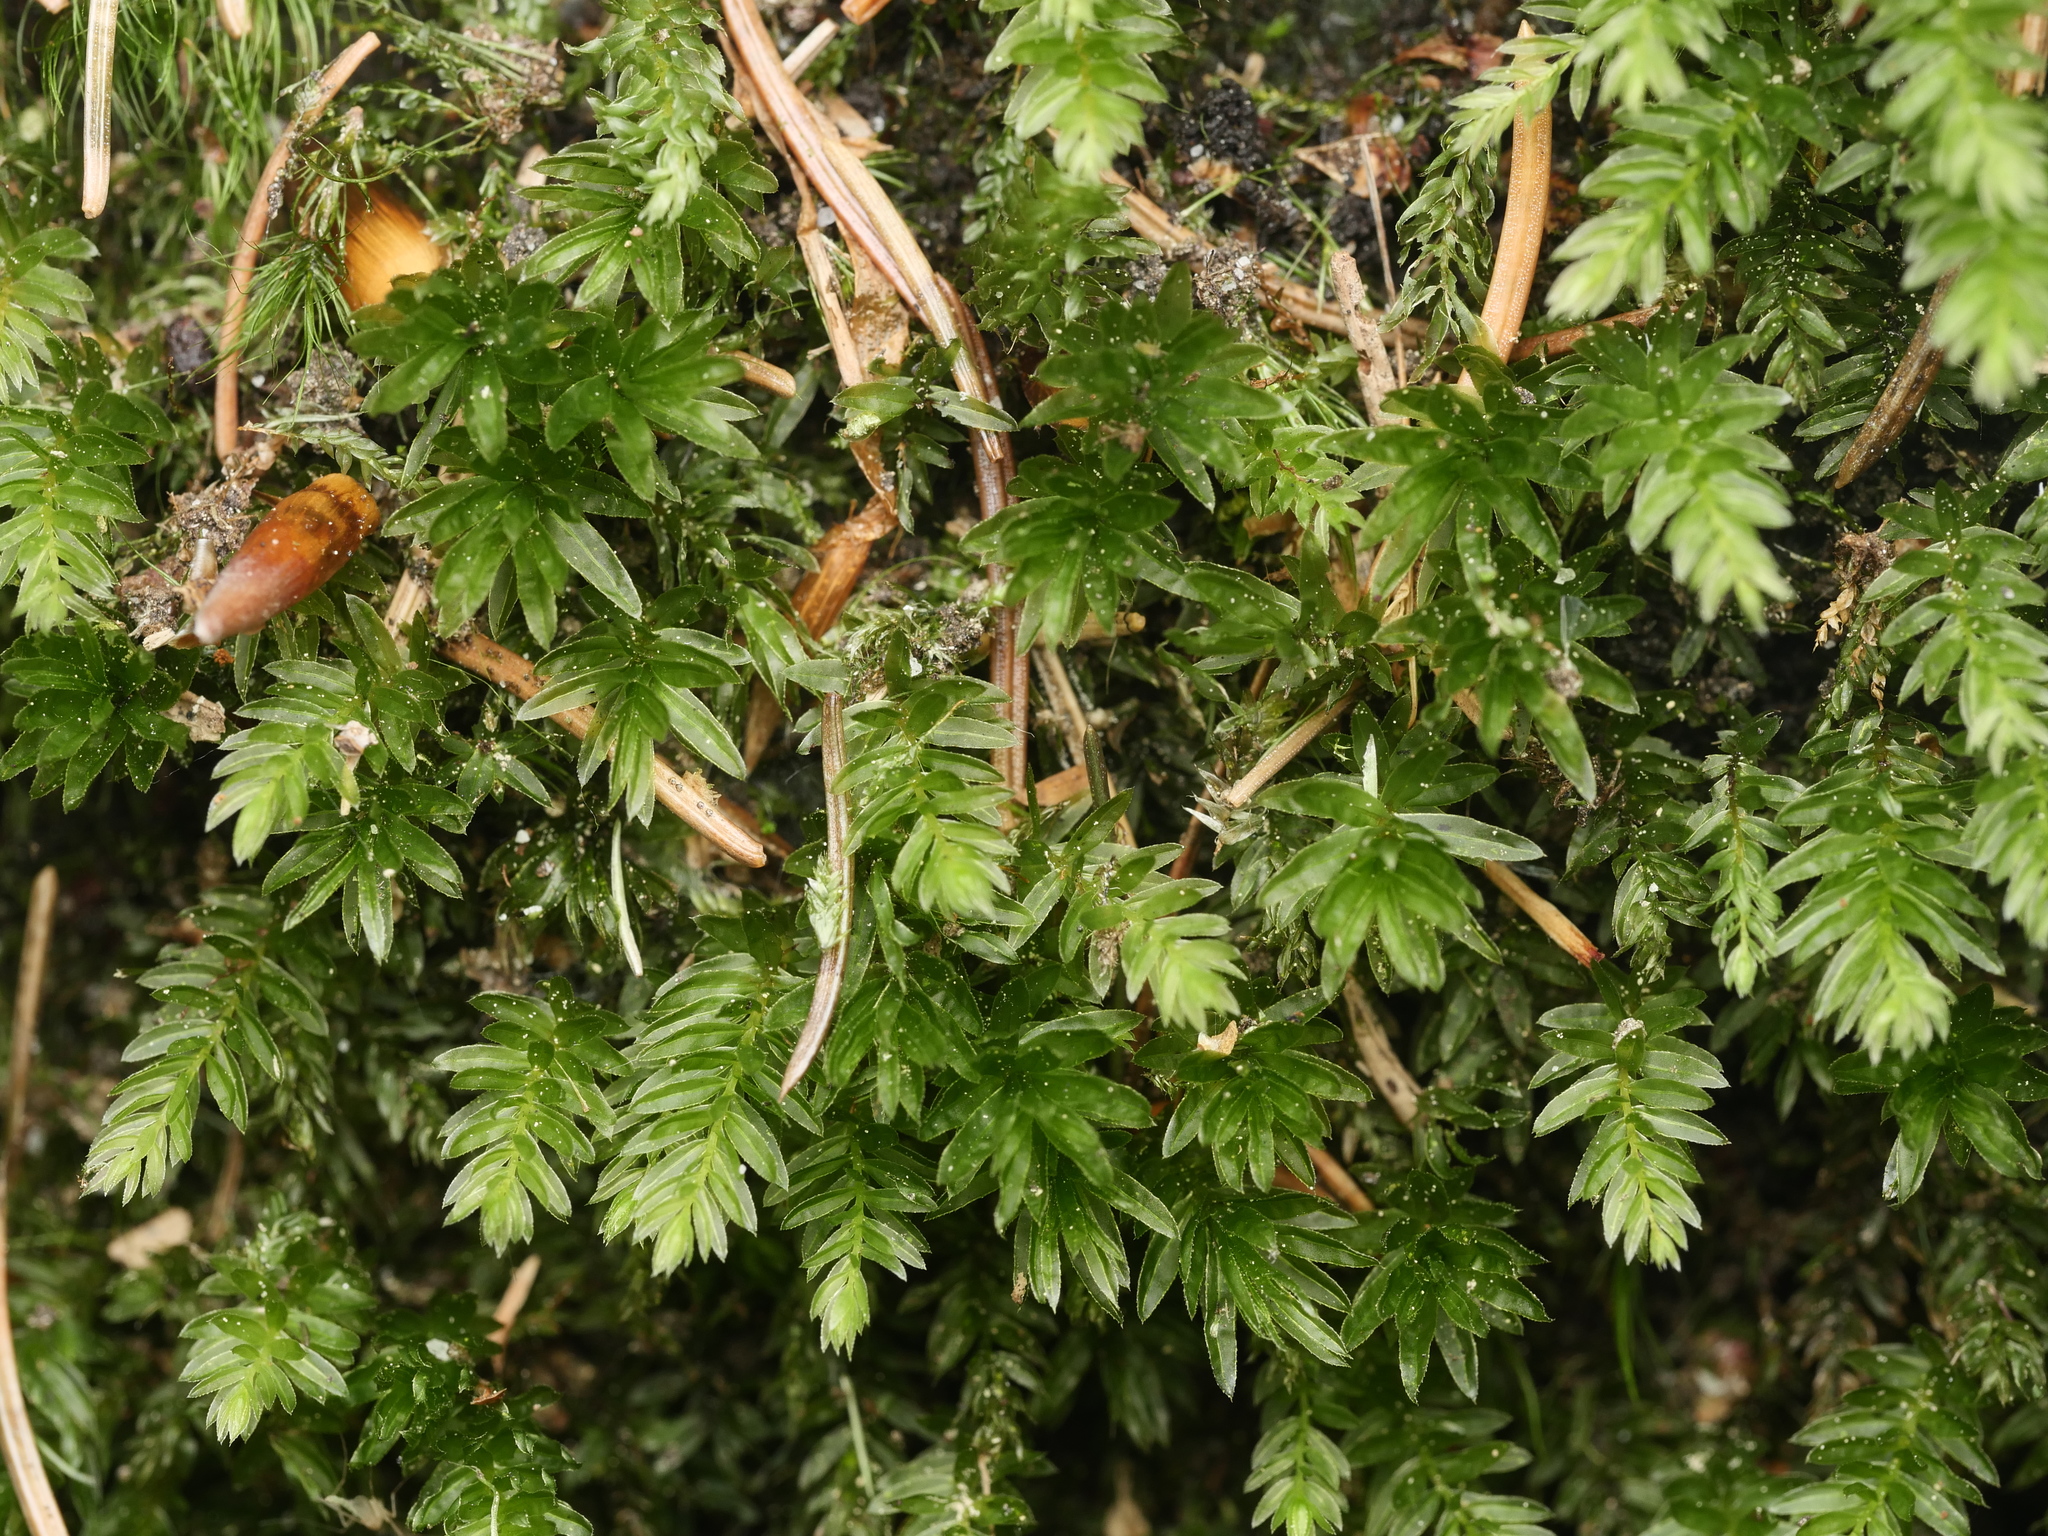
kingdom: Plantae
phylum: Bryophyta
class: Bryopsida
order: Bryales
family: Mniaceae
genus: Mnium
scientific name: Mnium hornum
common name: Swan's-neck leafy moss
